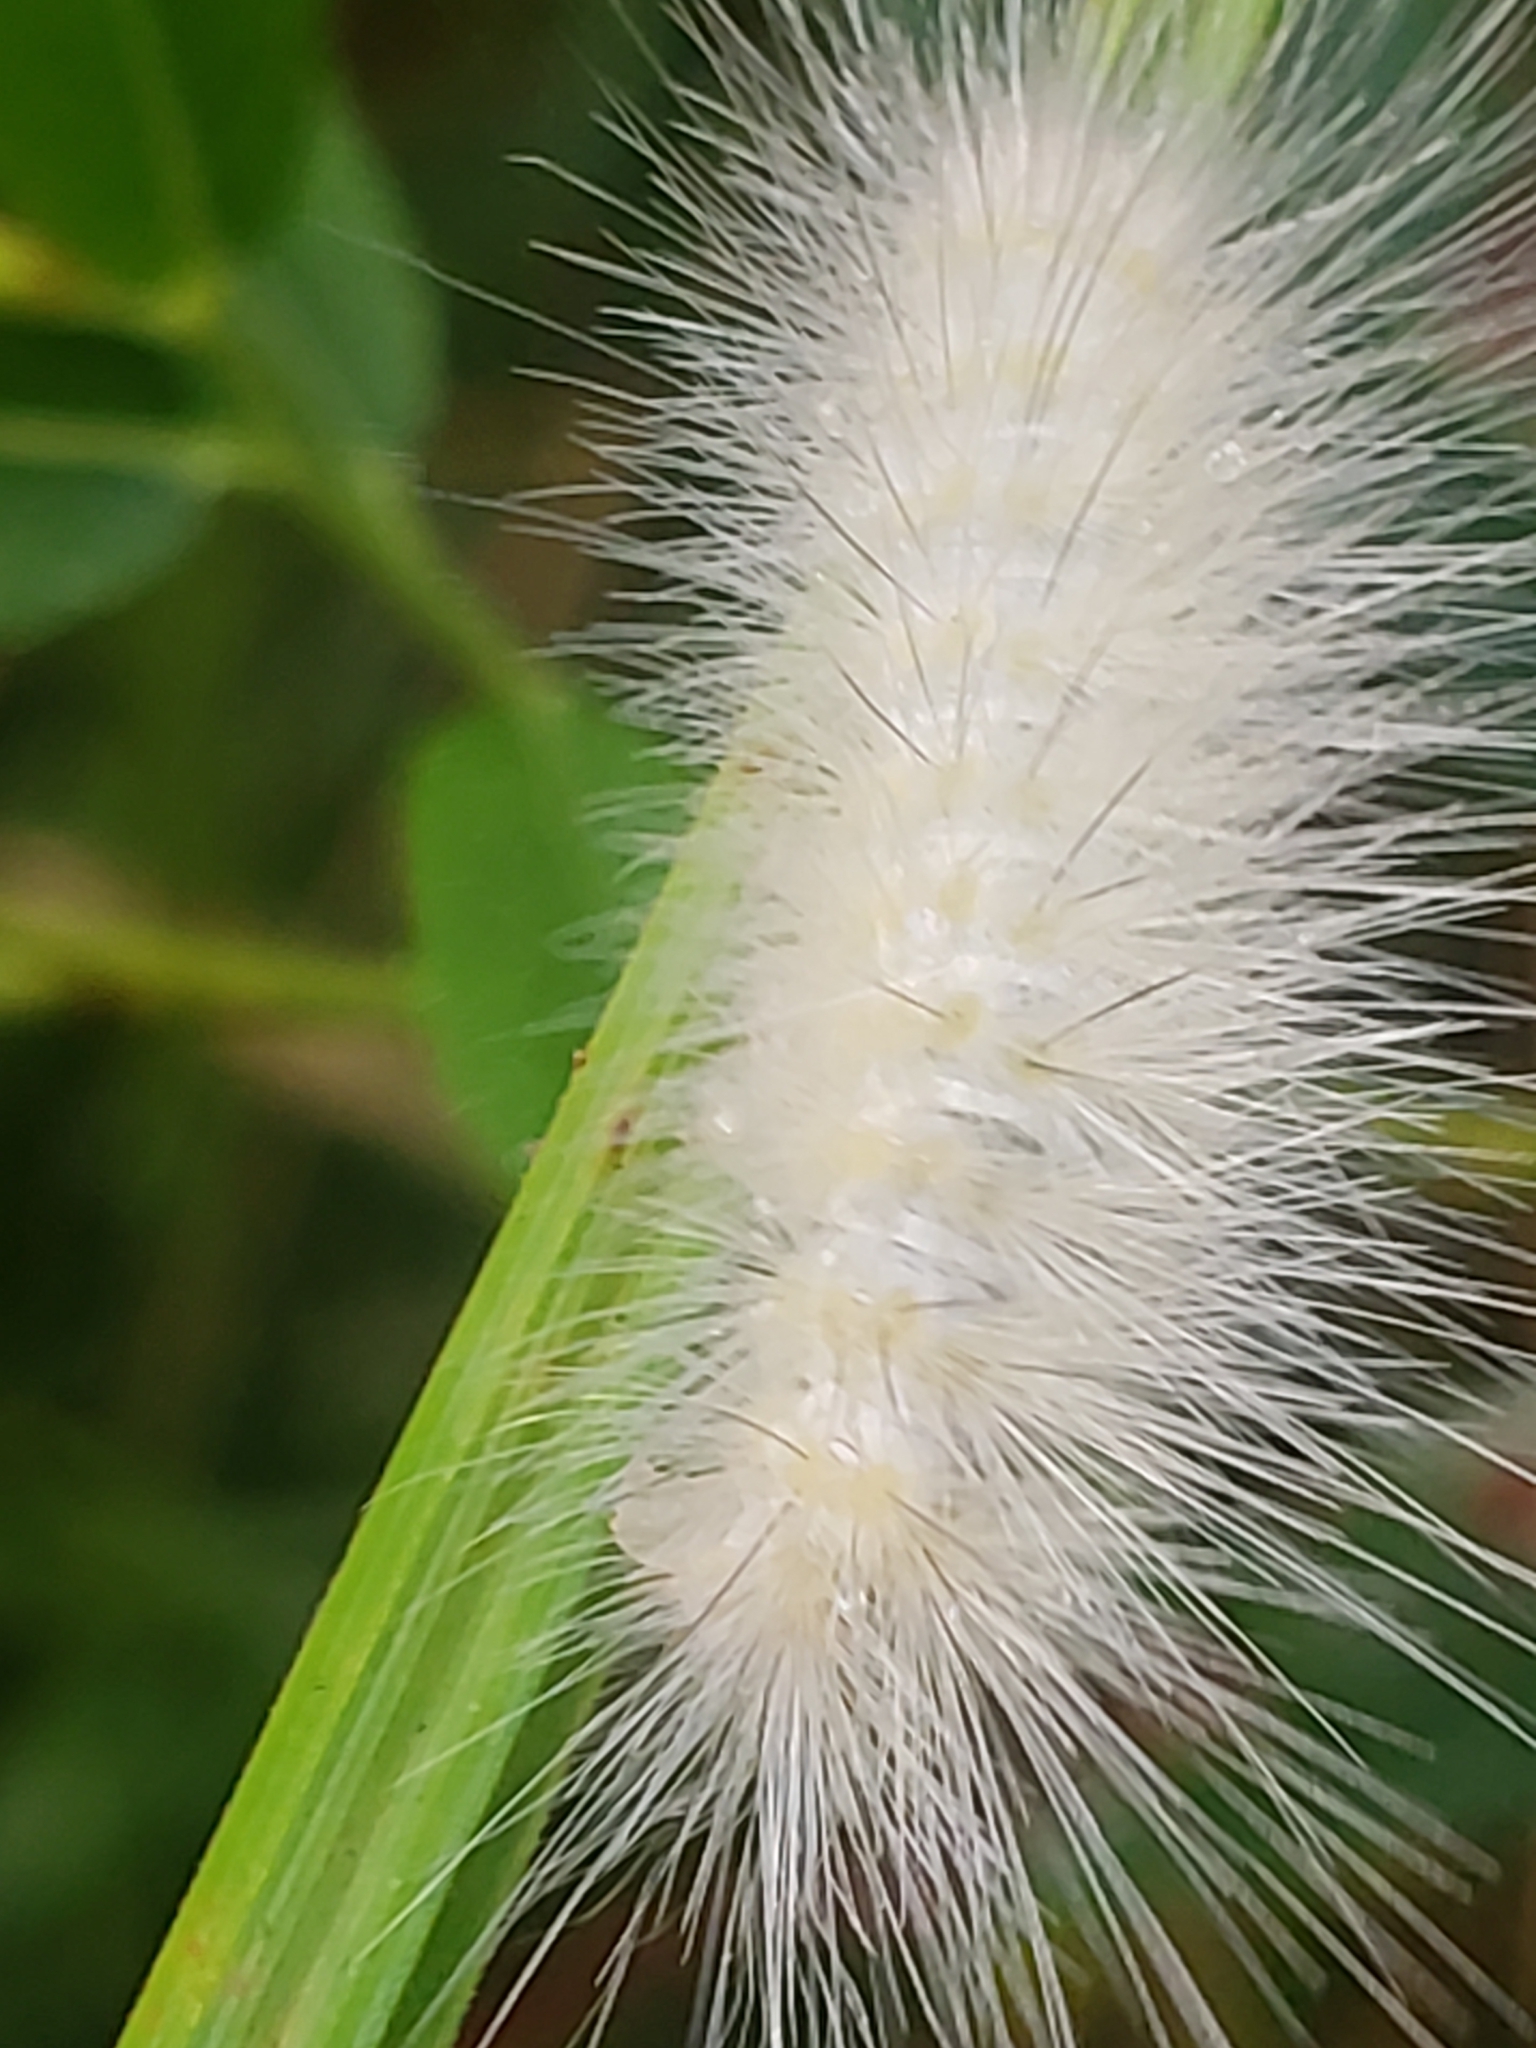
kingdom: Animalia
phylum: Arthropoda
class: Insecta
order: Lepidoptera
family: Erebidae
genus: Spilosoma
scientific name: Spilosoma virginica
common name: Virginia tiger moth
